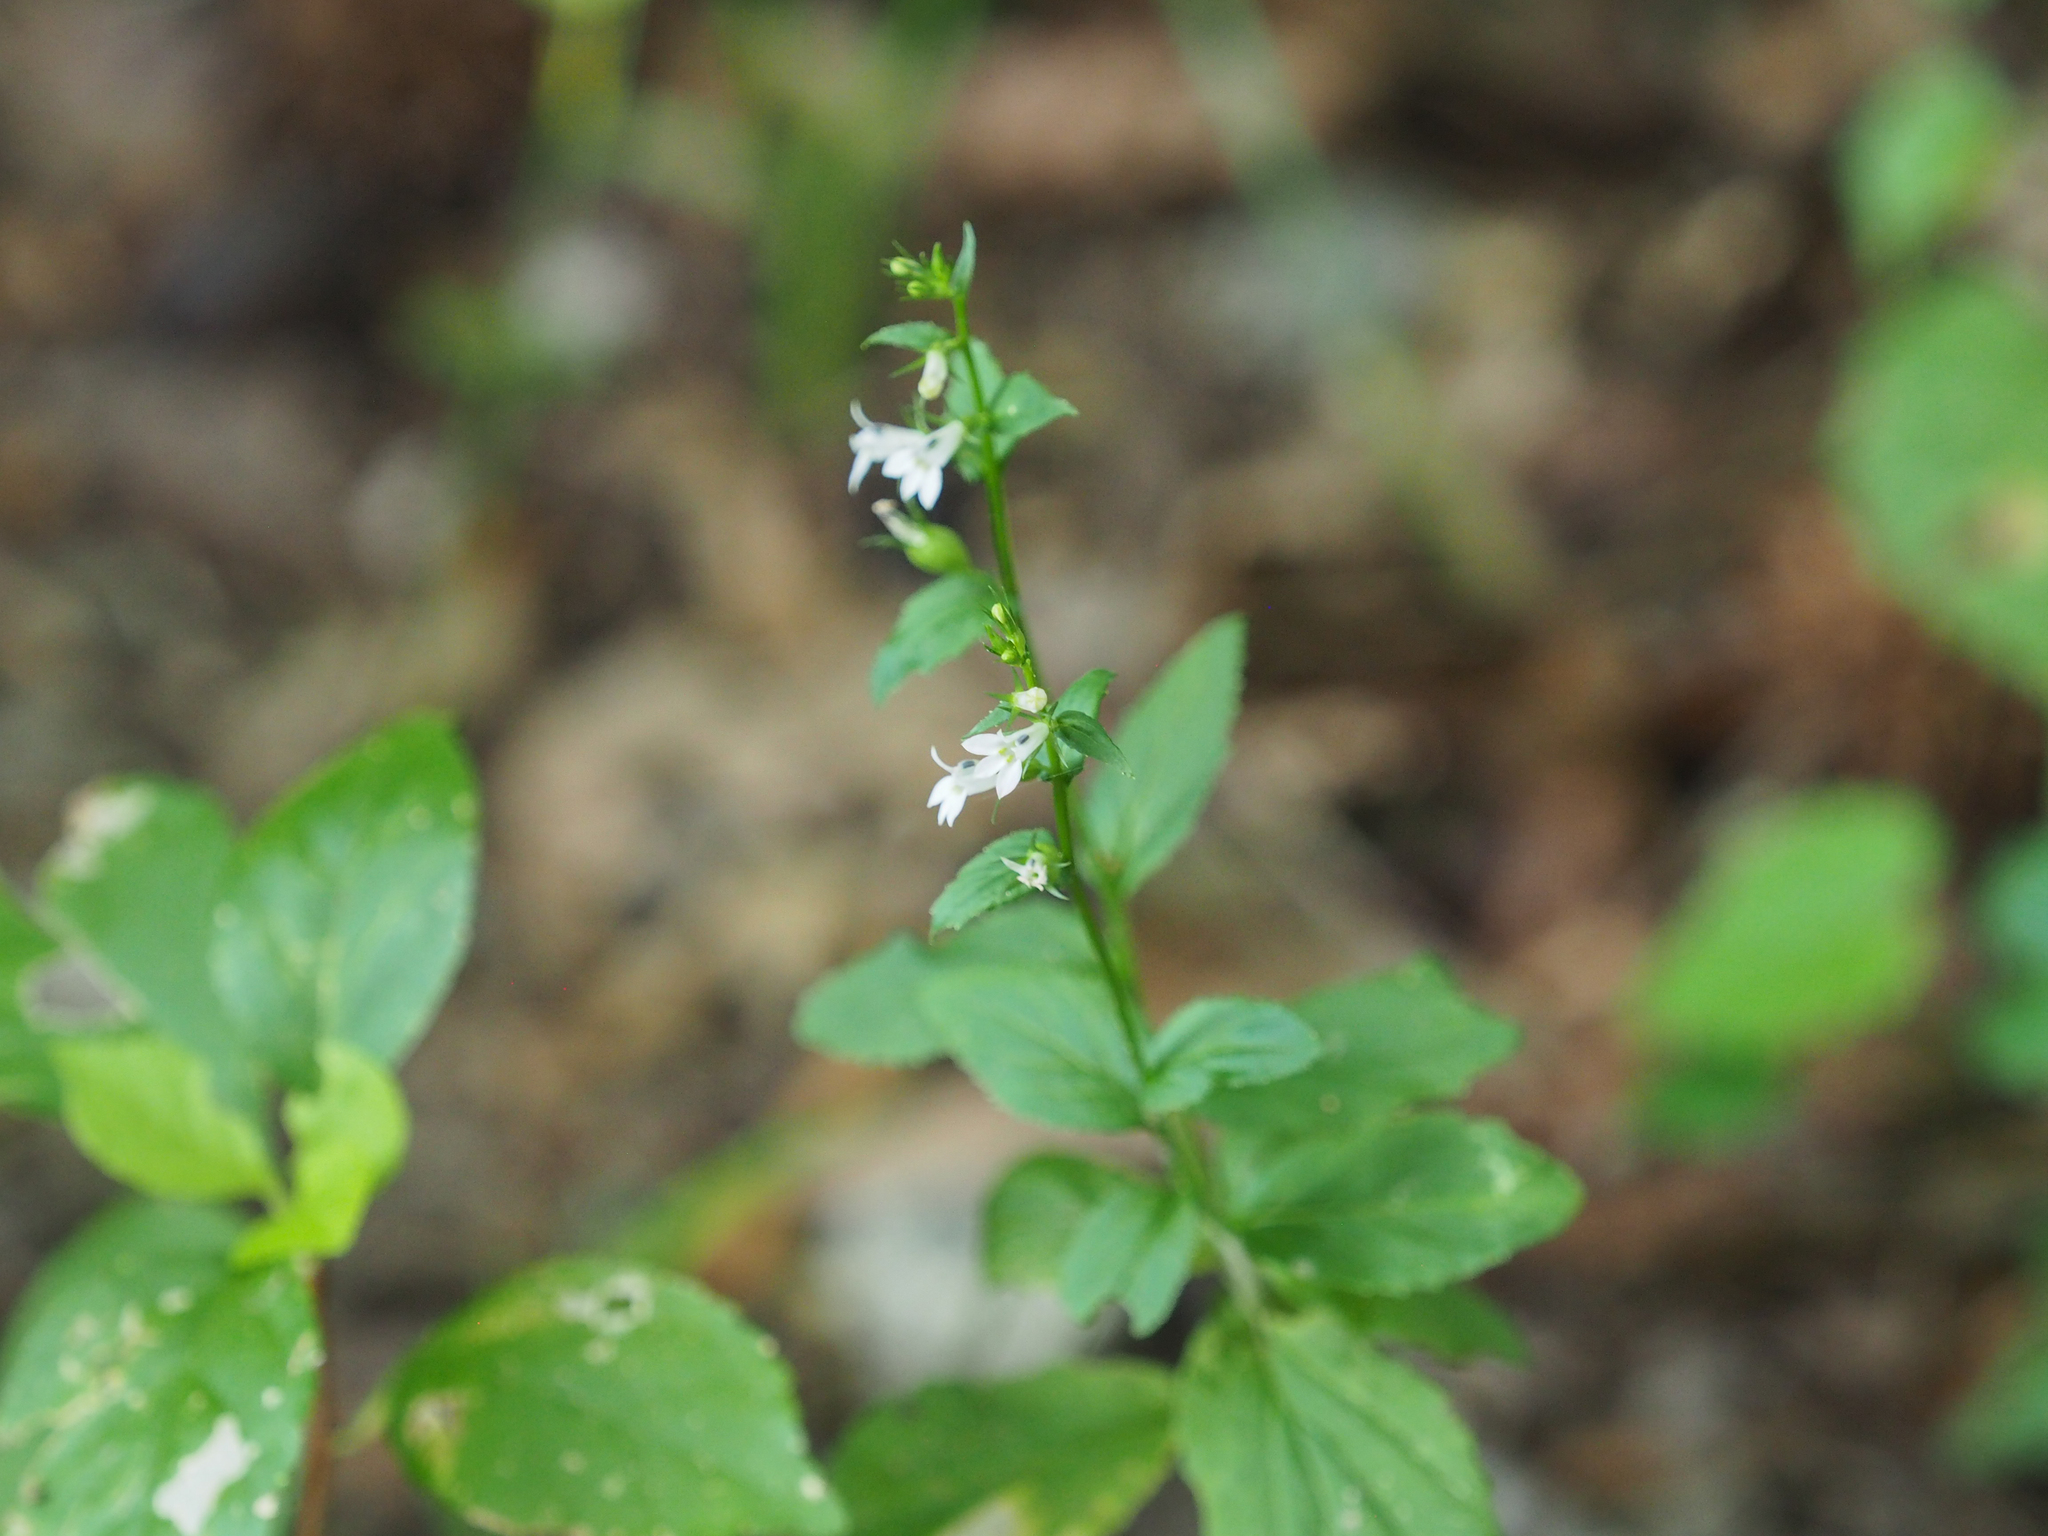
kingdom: Plantae
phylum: Tracheophyta
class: Magnoliopsida
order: Asterales
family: Campanulaceae
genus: Lobelia
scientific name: Lobelia inflata
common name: Indian tobacco
